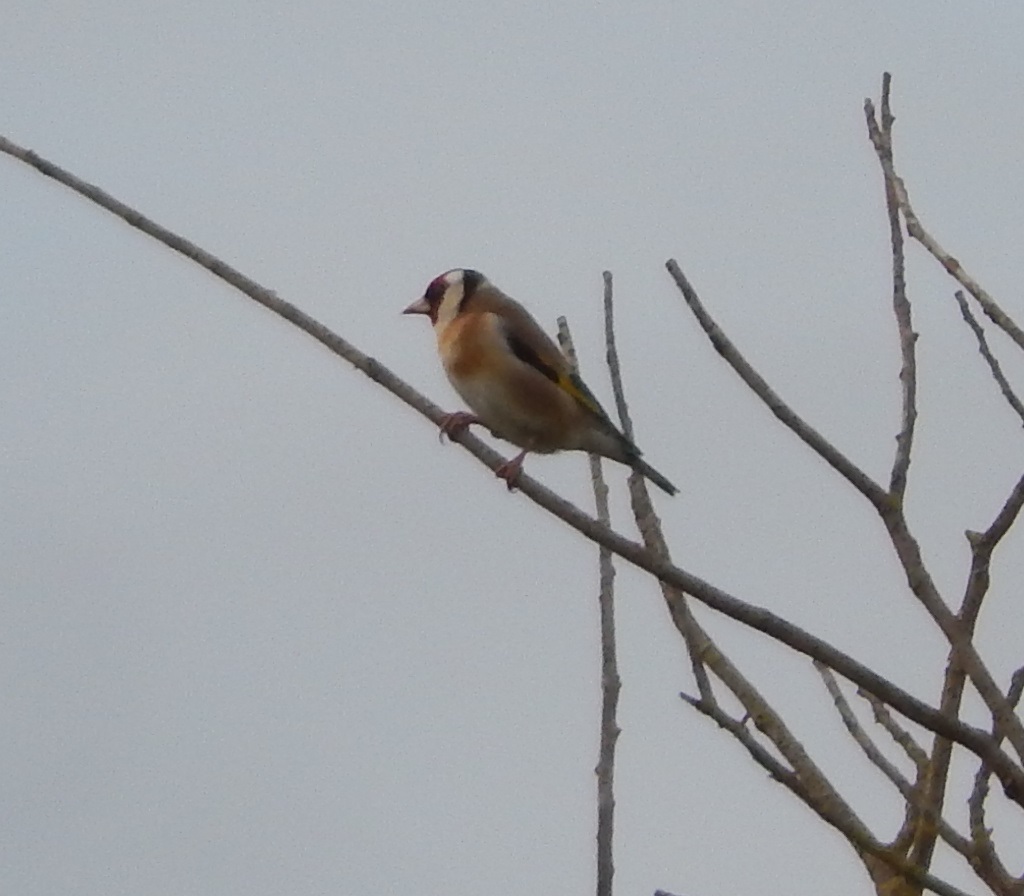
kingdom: Animalia
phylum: Chordata
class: Aves
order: Passeriformes
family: Fringillidae
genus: Carduelis
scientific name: Carduelis carduelis
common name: European goldfinch
